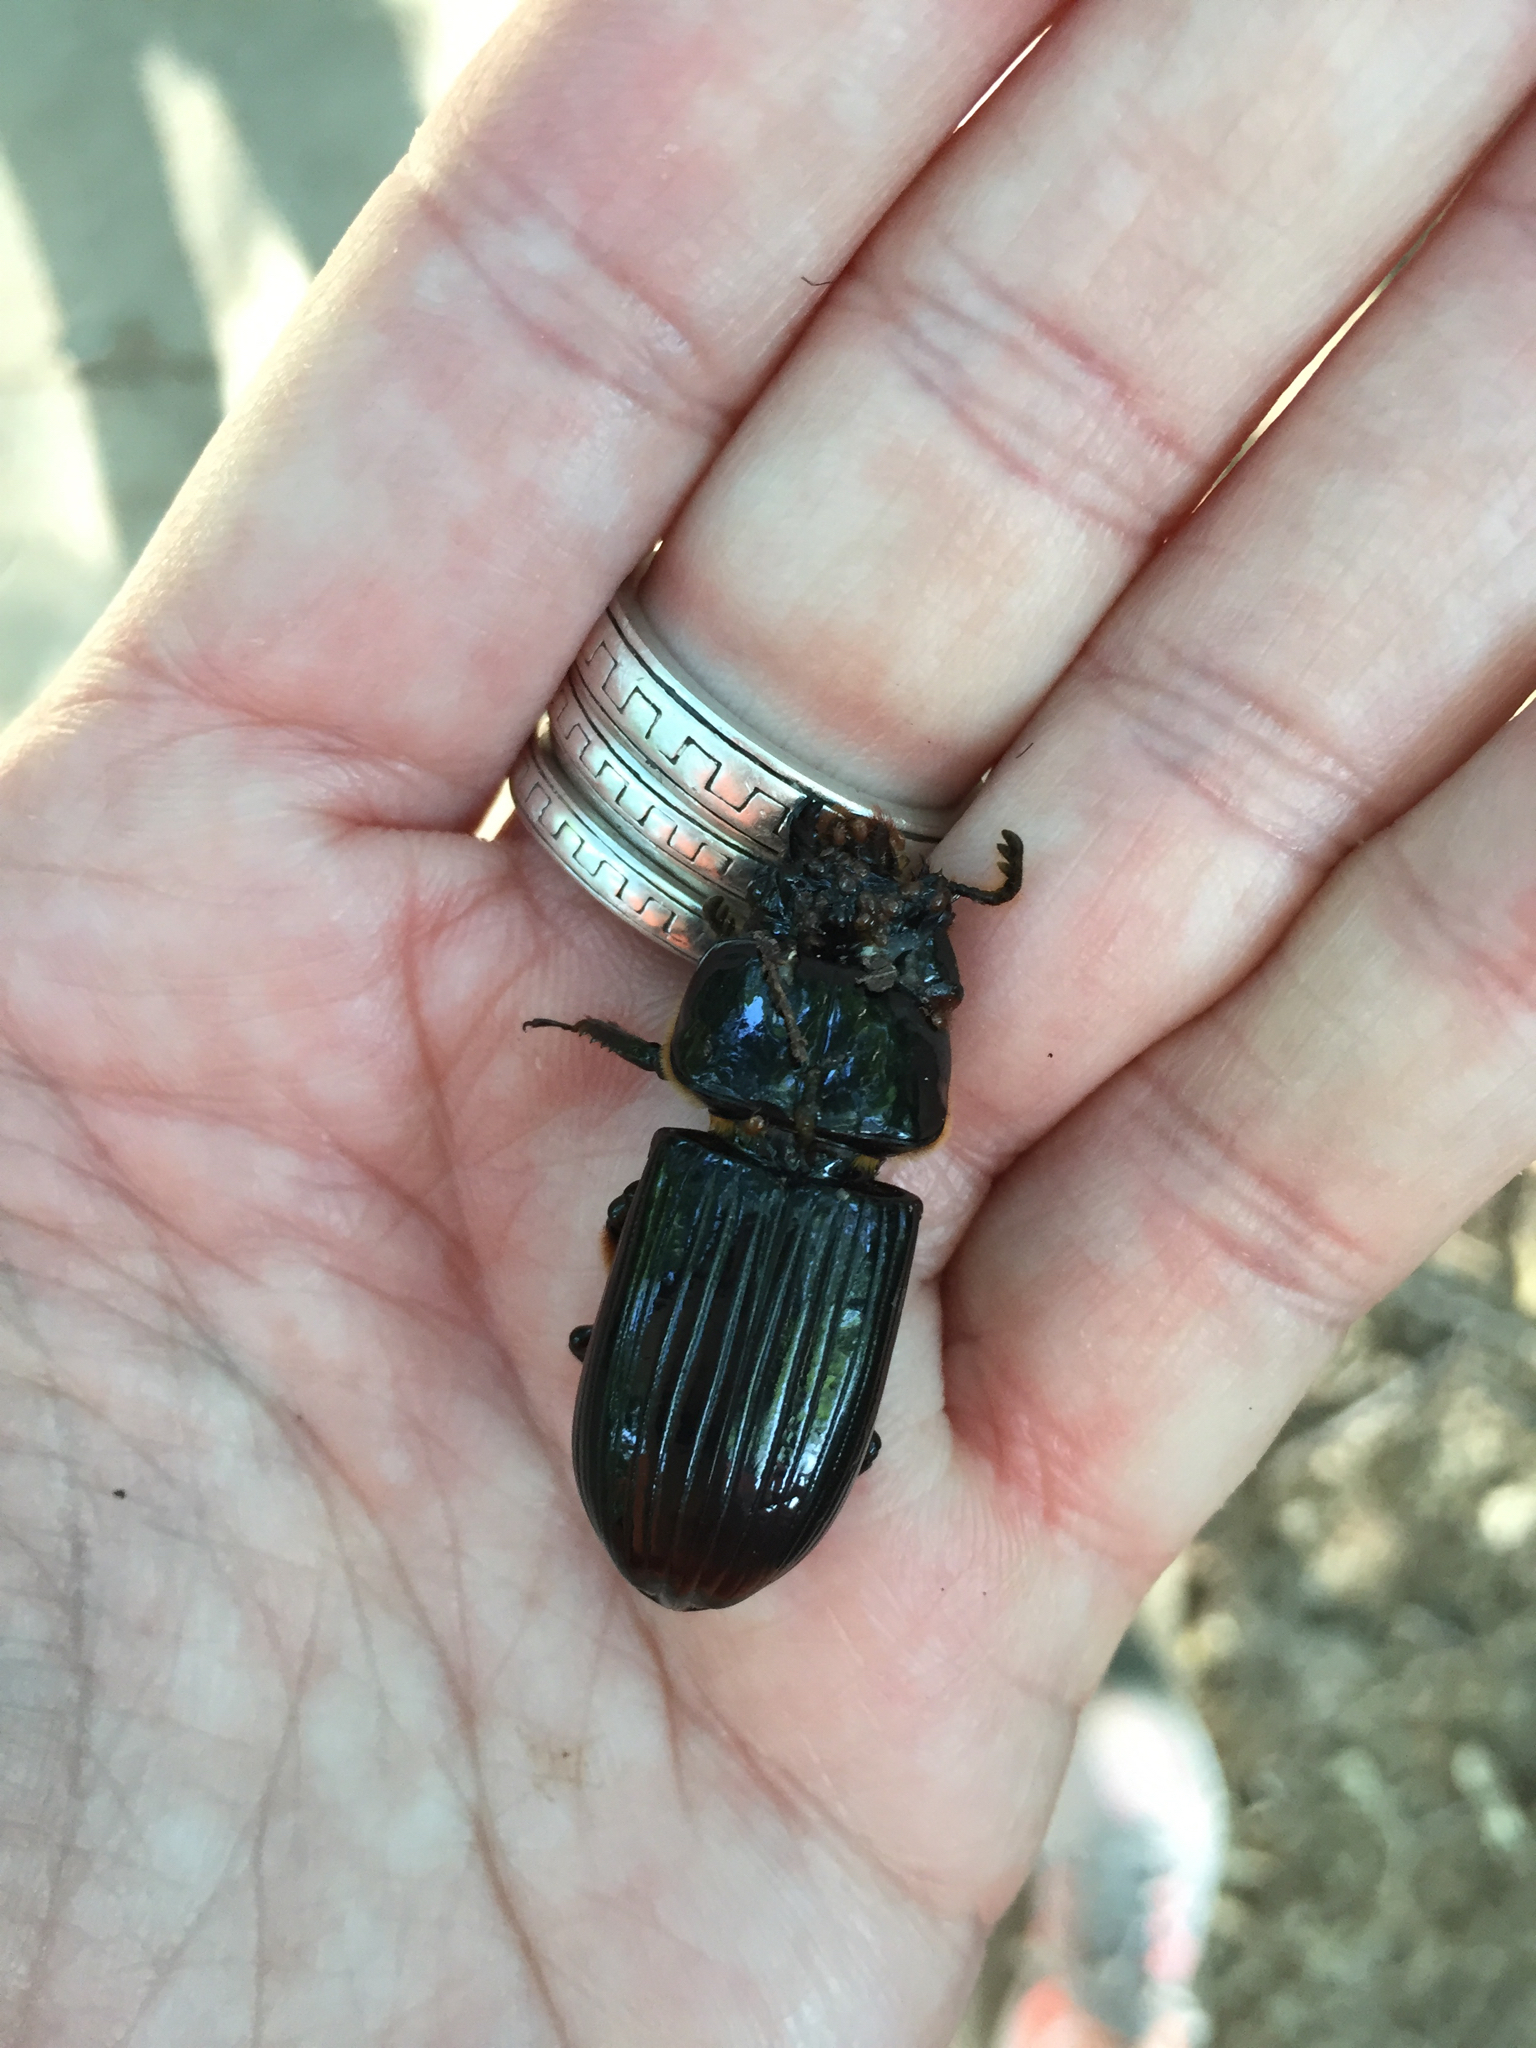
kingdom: Animalia
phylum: Arthropoda
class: Insecta
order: Coleoptera
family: Passalidae
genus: Odontotaenius
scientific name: Odontotaenius disjunctus
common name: Patent leather beetle
